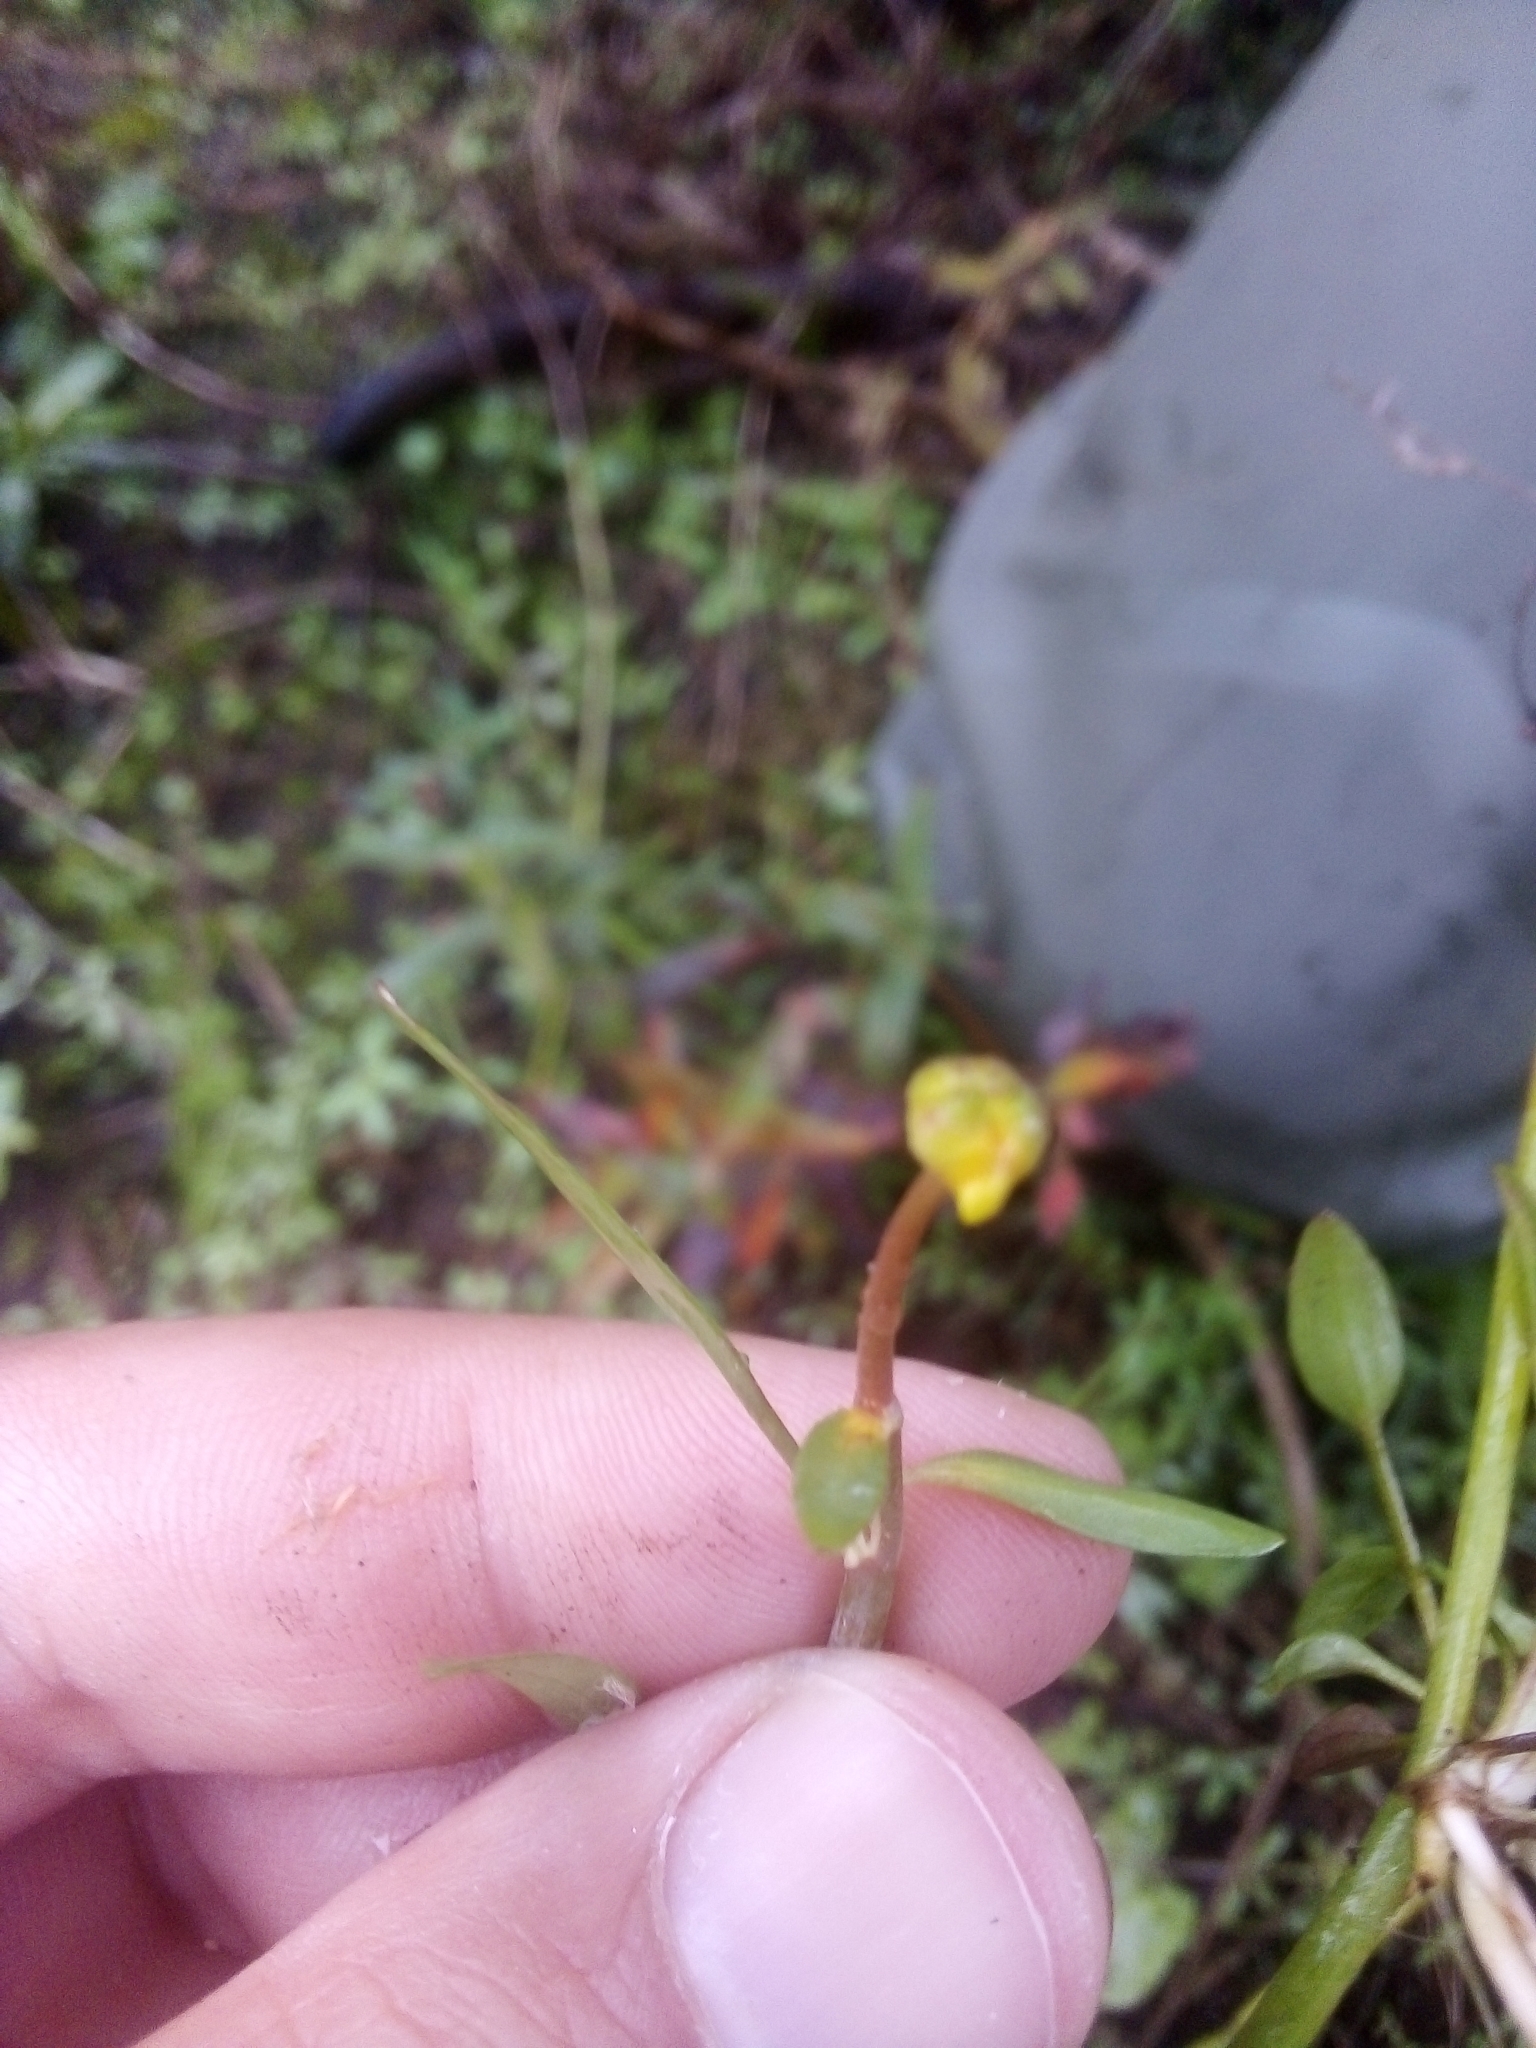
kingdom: Plantae
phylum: Tracheophyta
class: Magnoliopsida
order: Ranunculales
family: Ranunculaceae
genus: Ranunculus
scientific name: Ranunculus flammula
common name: Lesser spearwort
